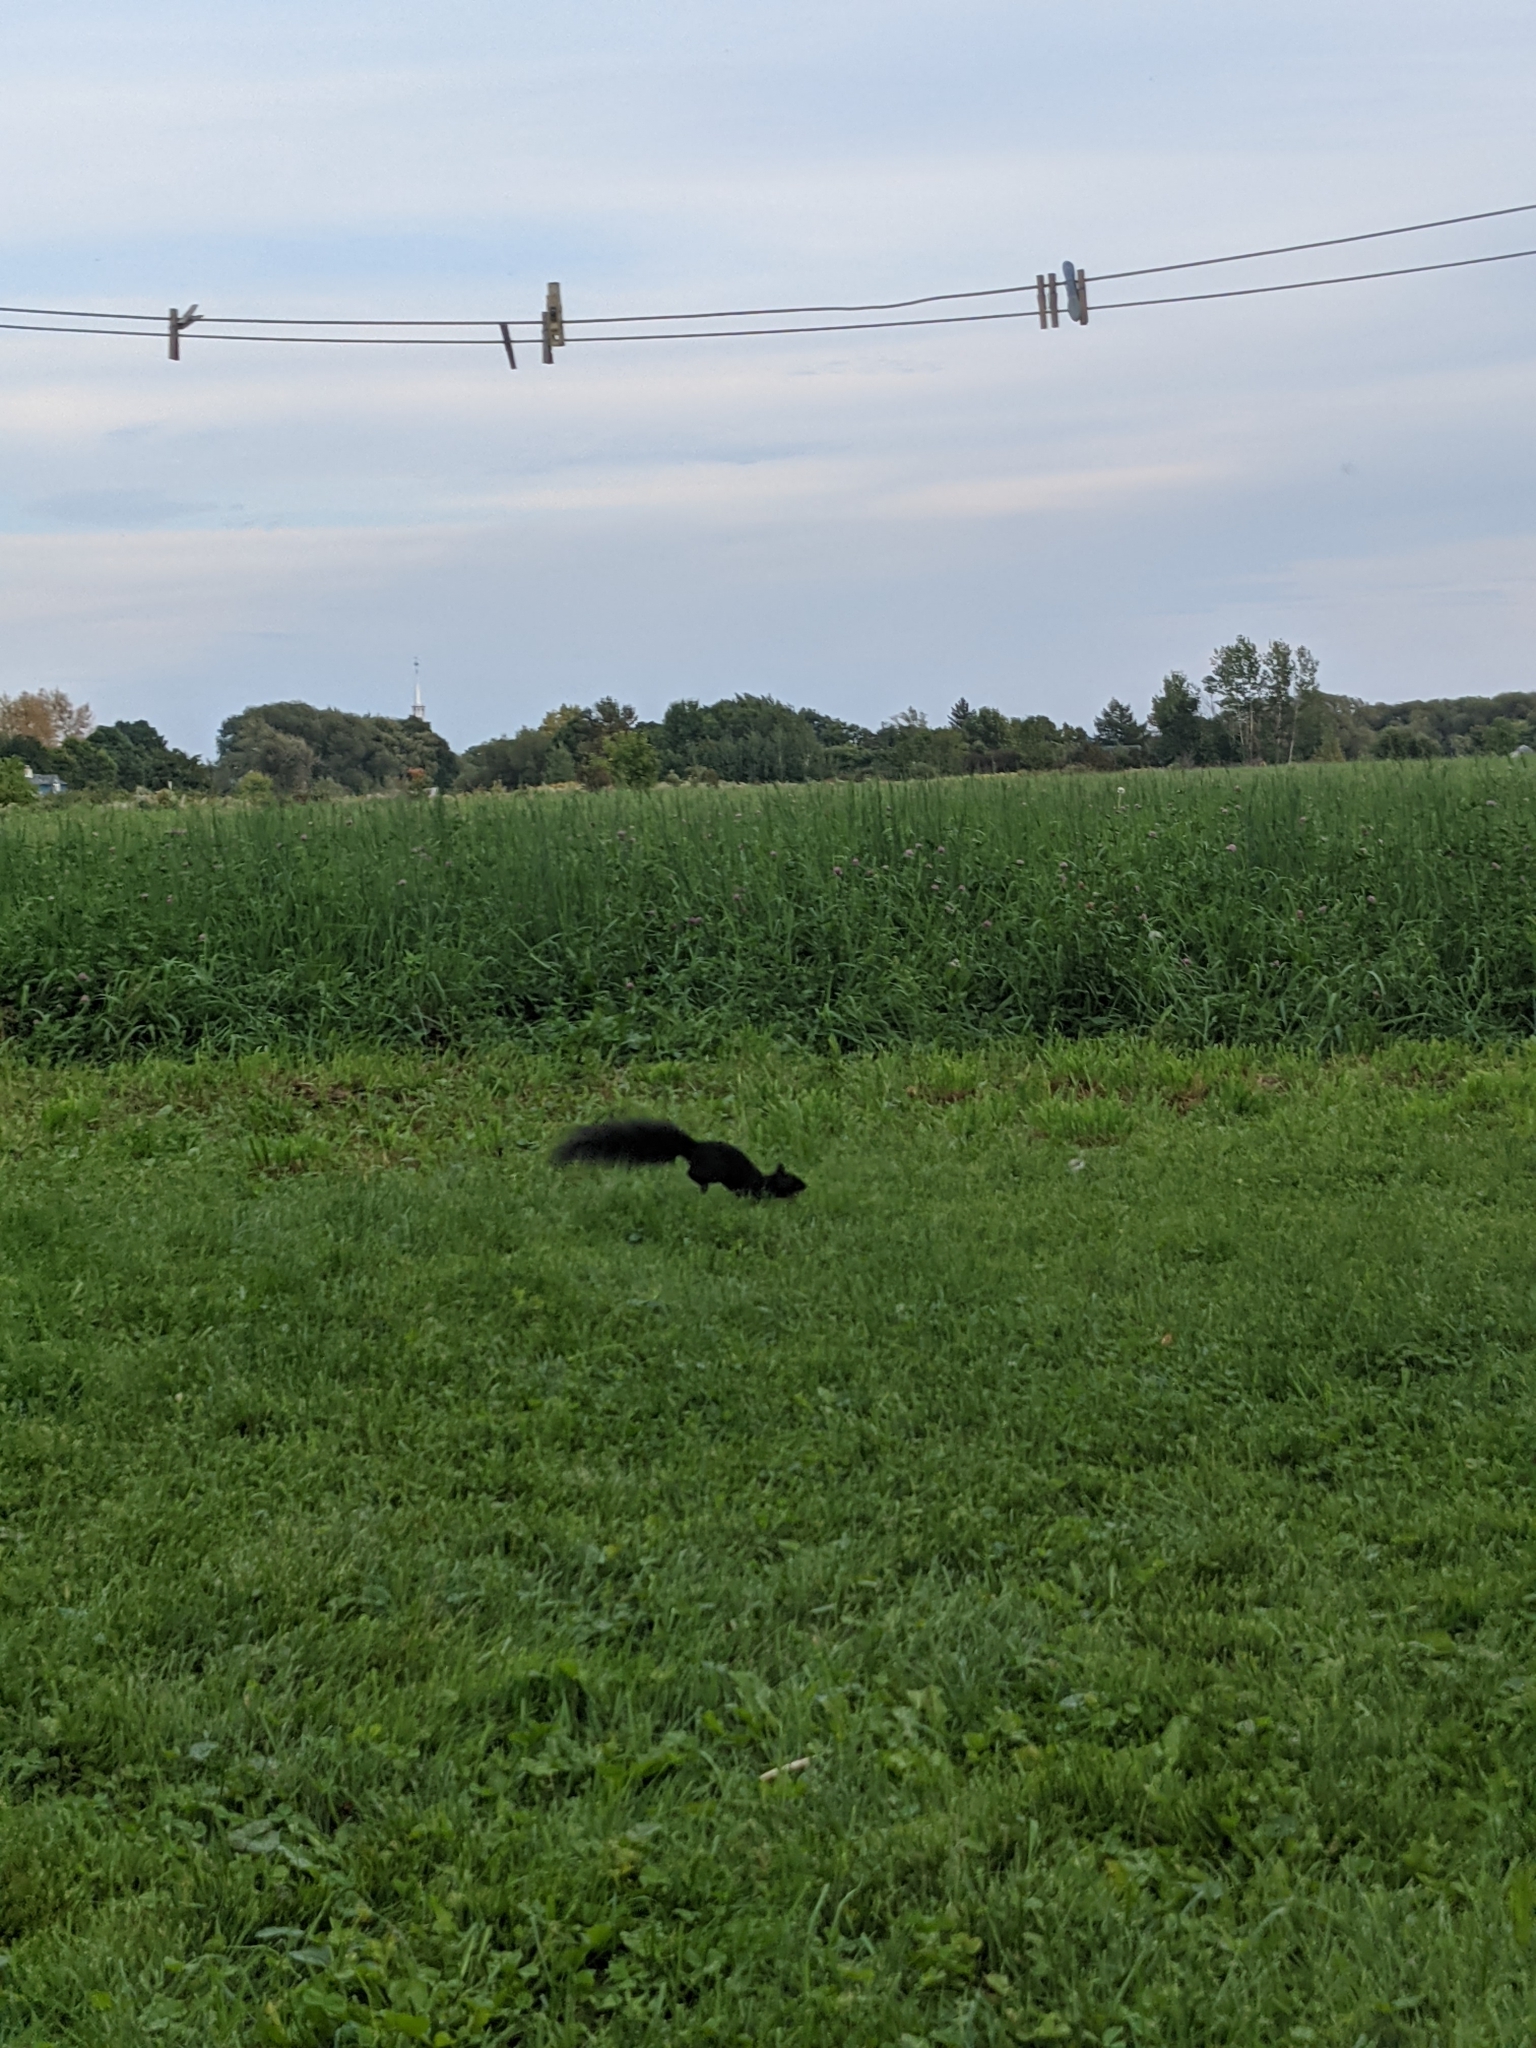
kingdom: Animalia
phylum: Chordata
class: Mammalia
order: Rodentia
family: Sciuridae
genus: Sciurus
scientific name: Sciurus carolinensis
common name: Eastern gray squirrel
